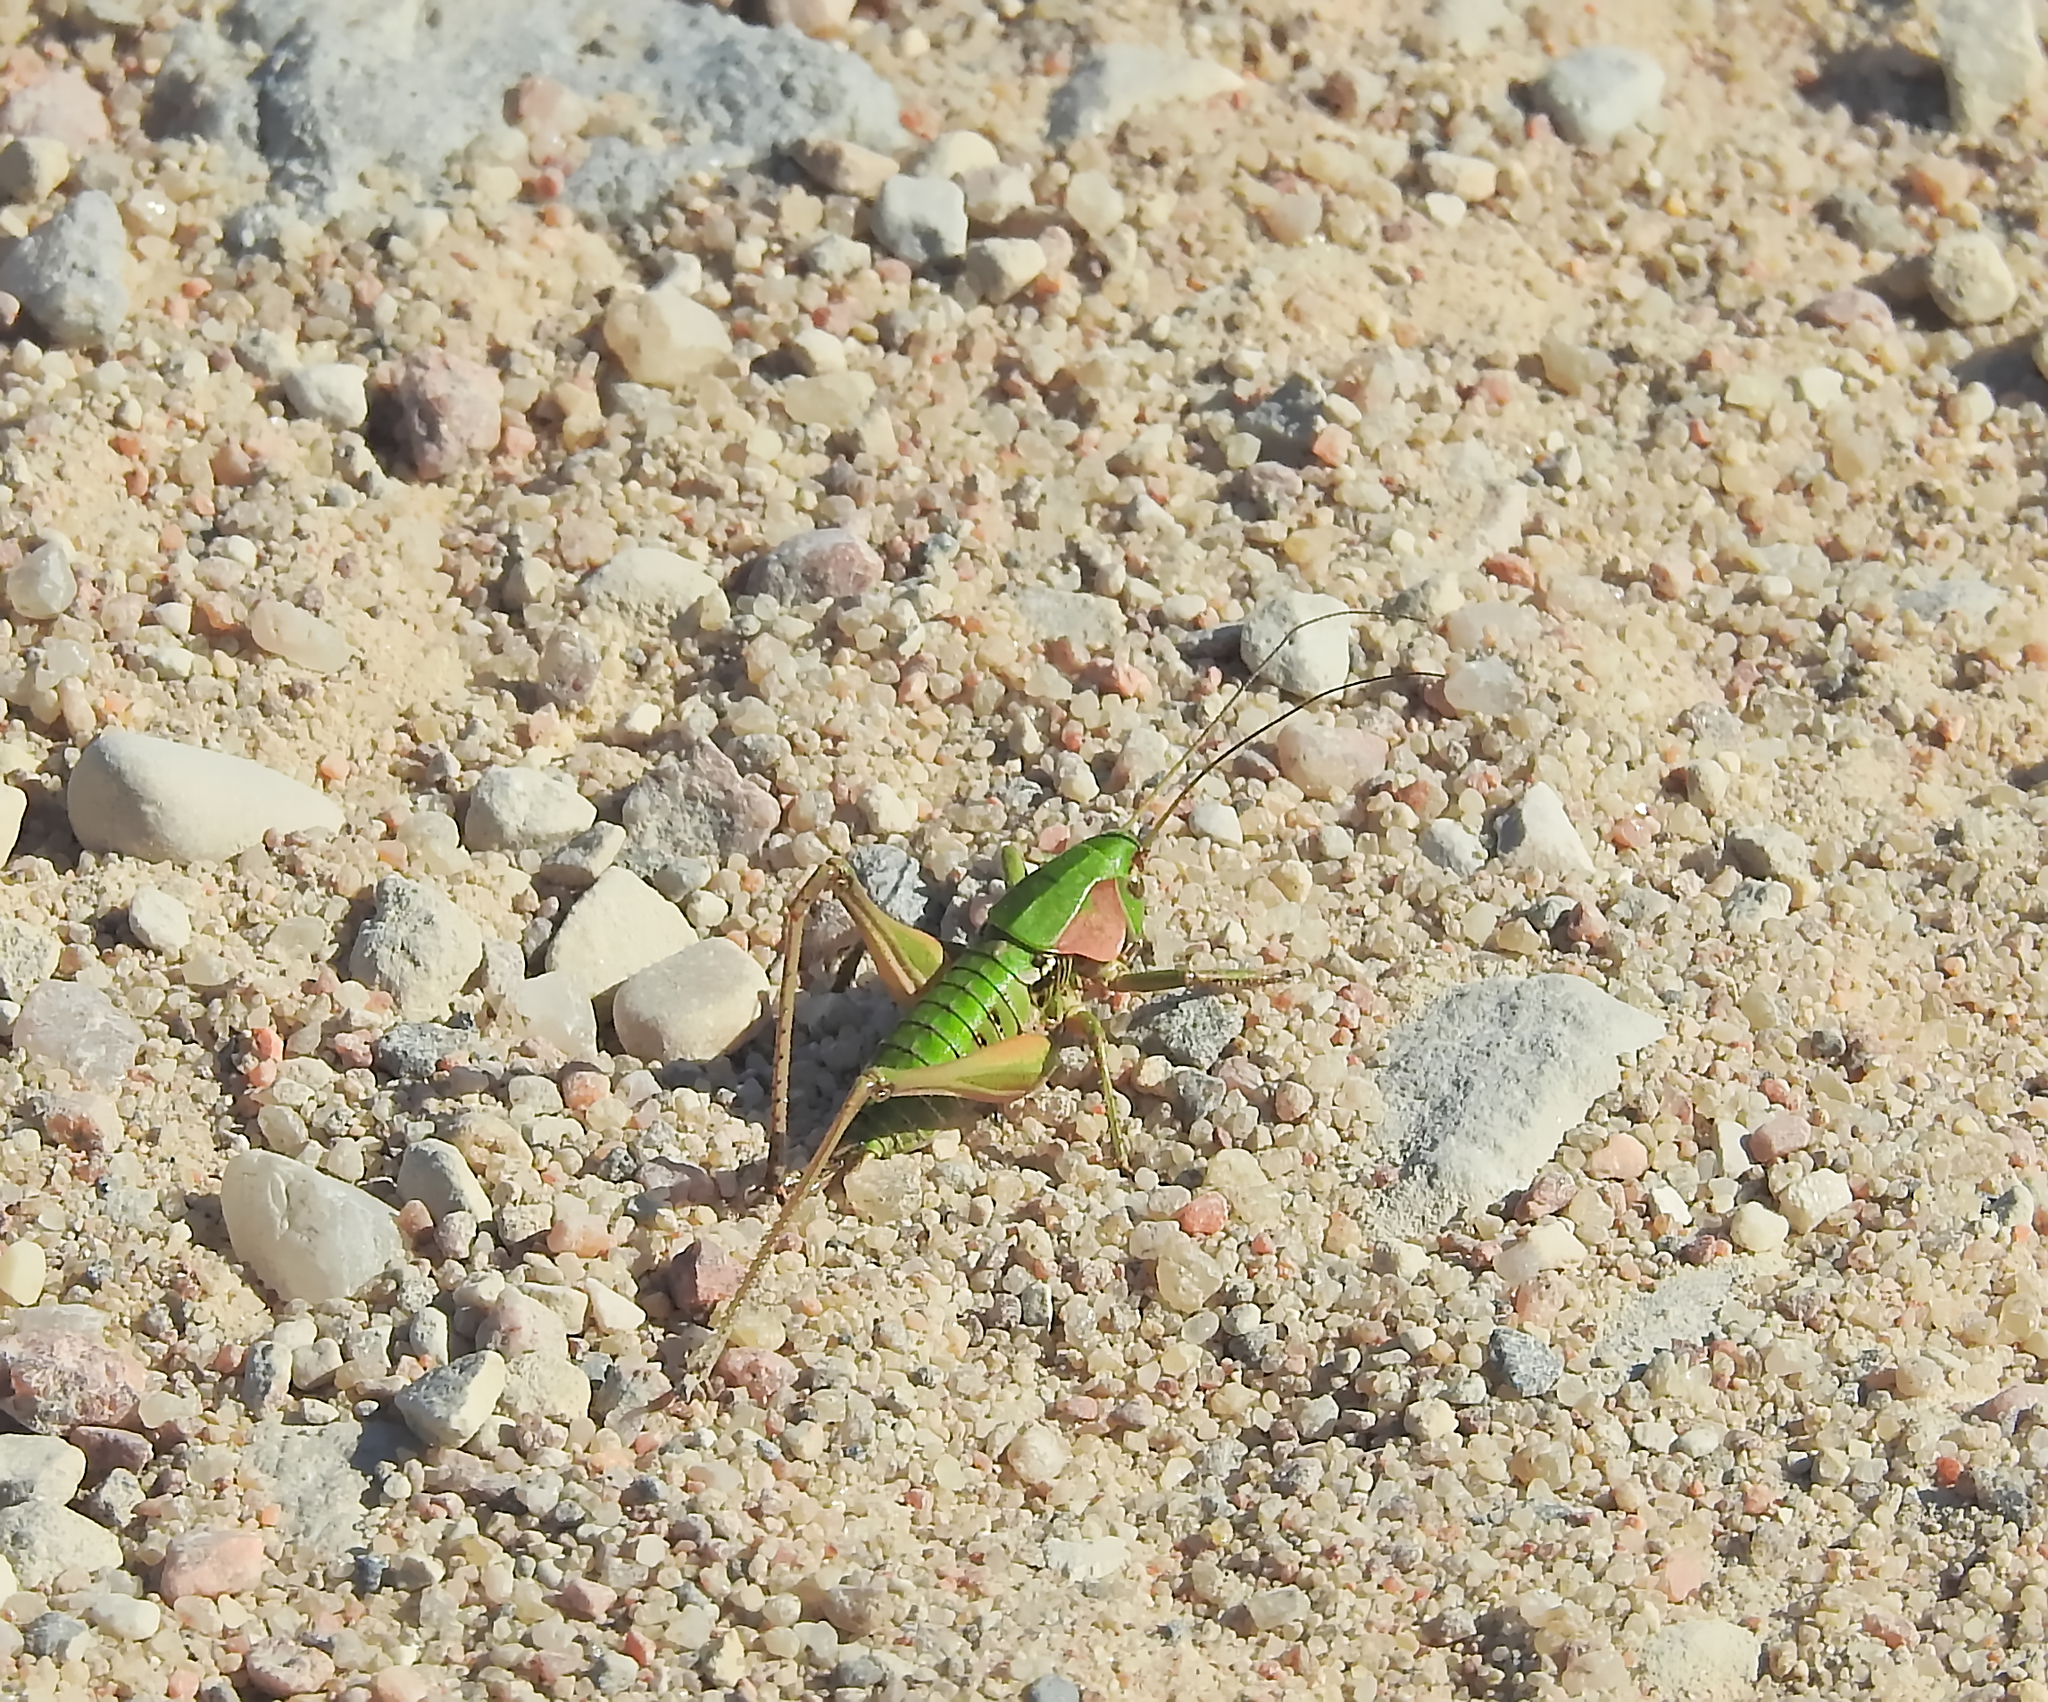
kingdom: Animalia
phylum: Arthropoda
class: Insecta
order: Orthoptera
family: Tettigoniidae
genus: Decticus
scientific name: Decticus verrucivorus
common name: Wart-biter
